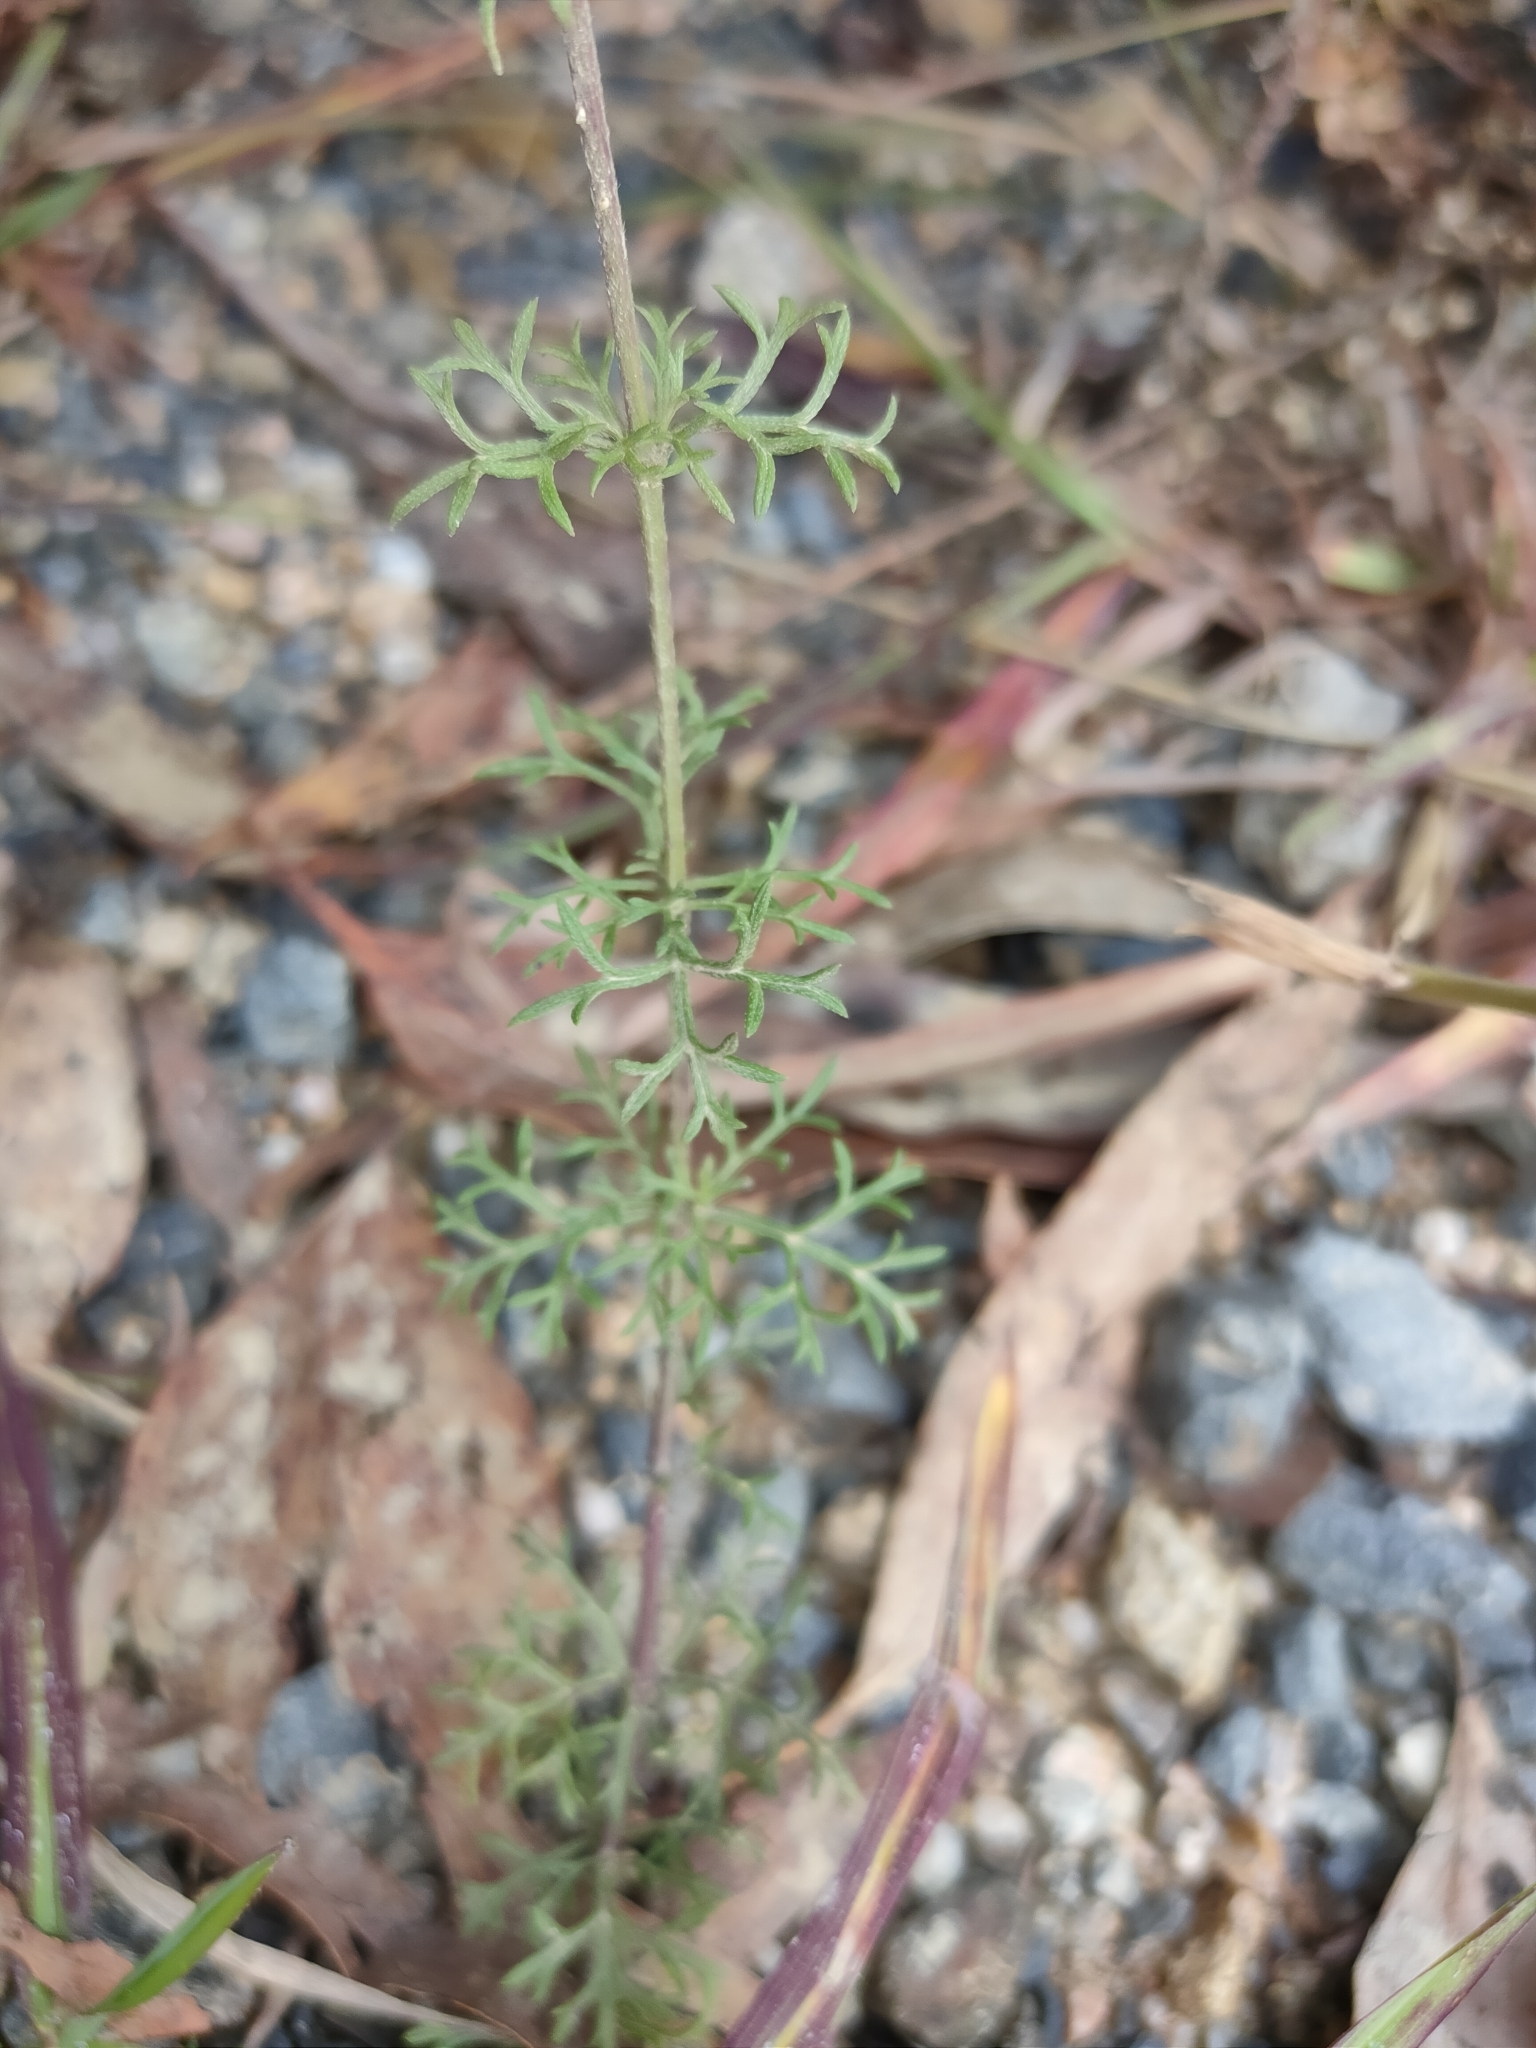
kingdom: Plantae
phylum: Tracheophyta
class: Magnoliopsida
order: Lamiales
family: Verbenaceae
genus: Verbena
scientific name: Verbena aristigera
